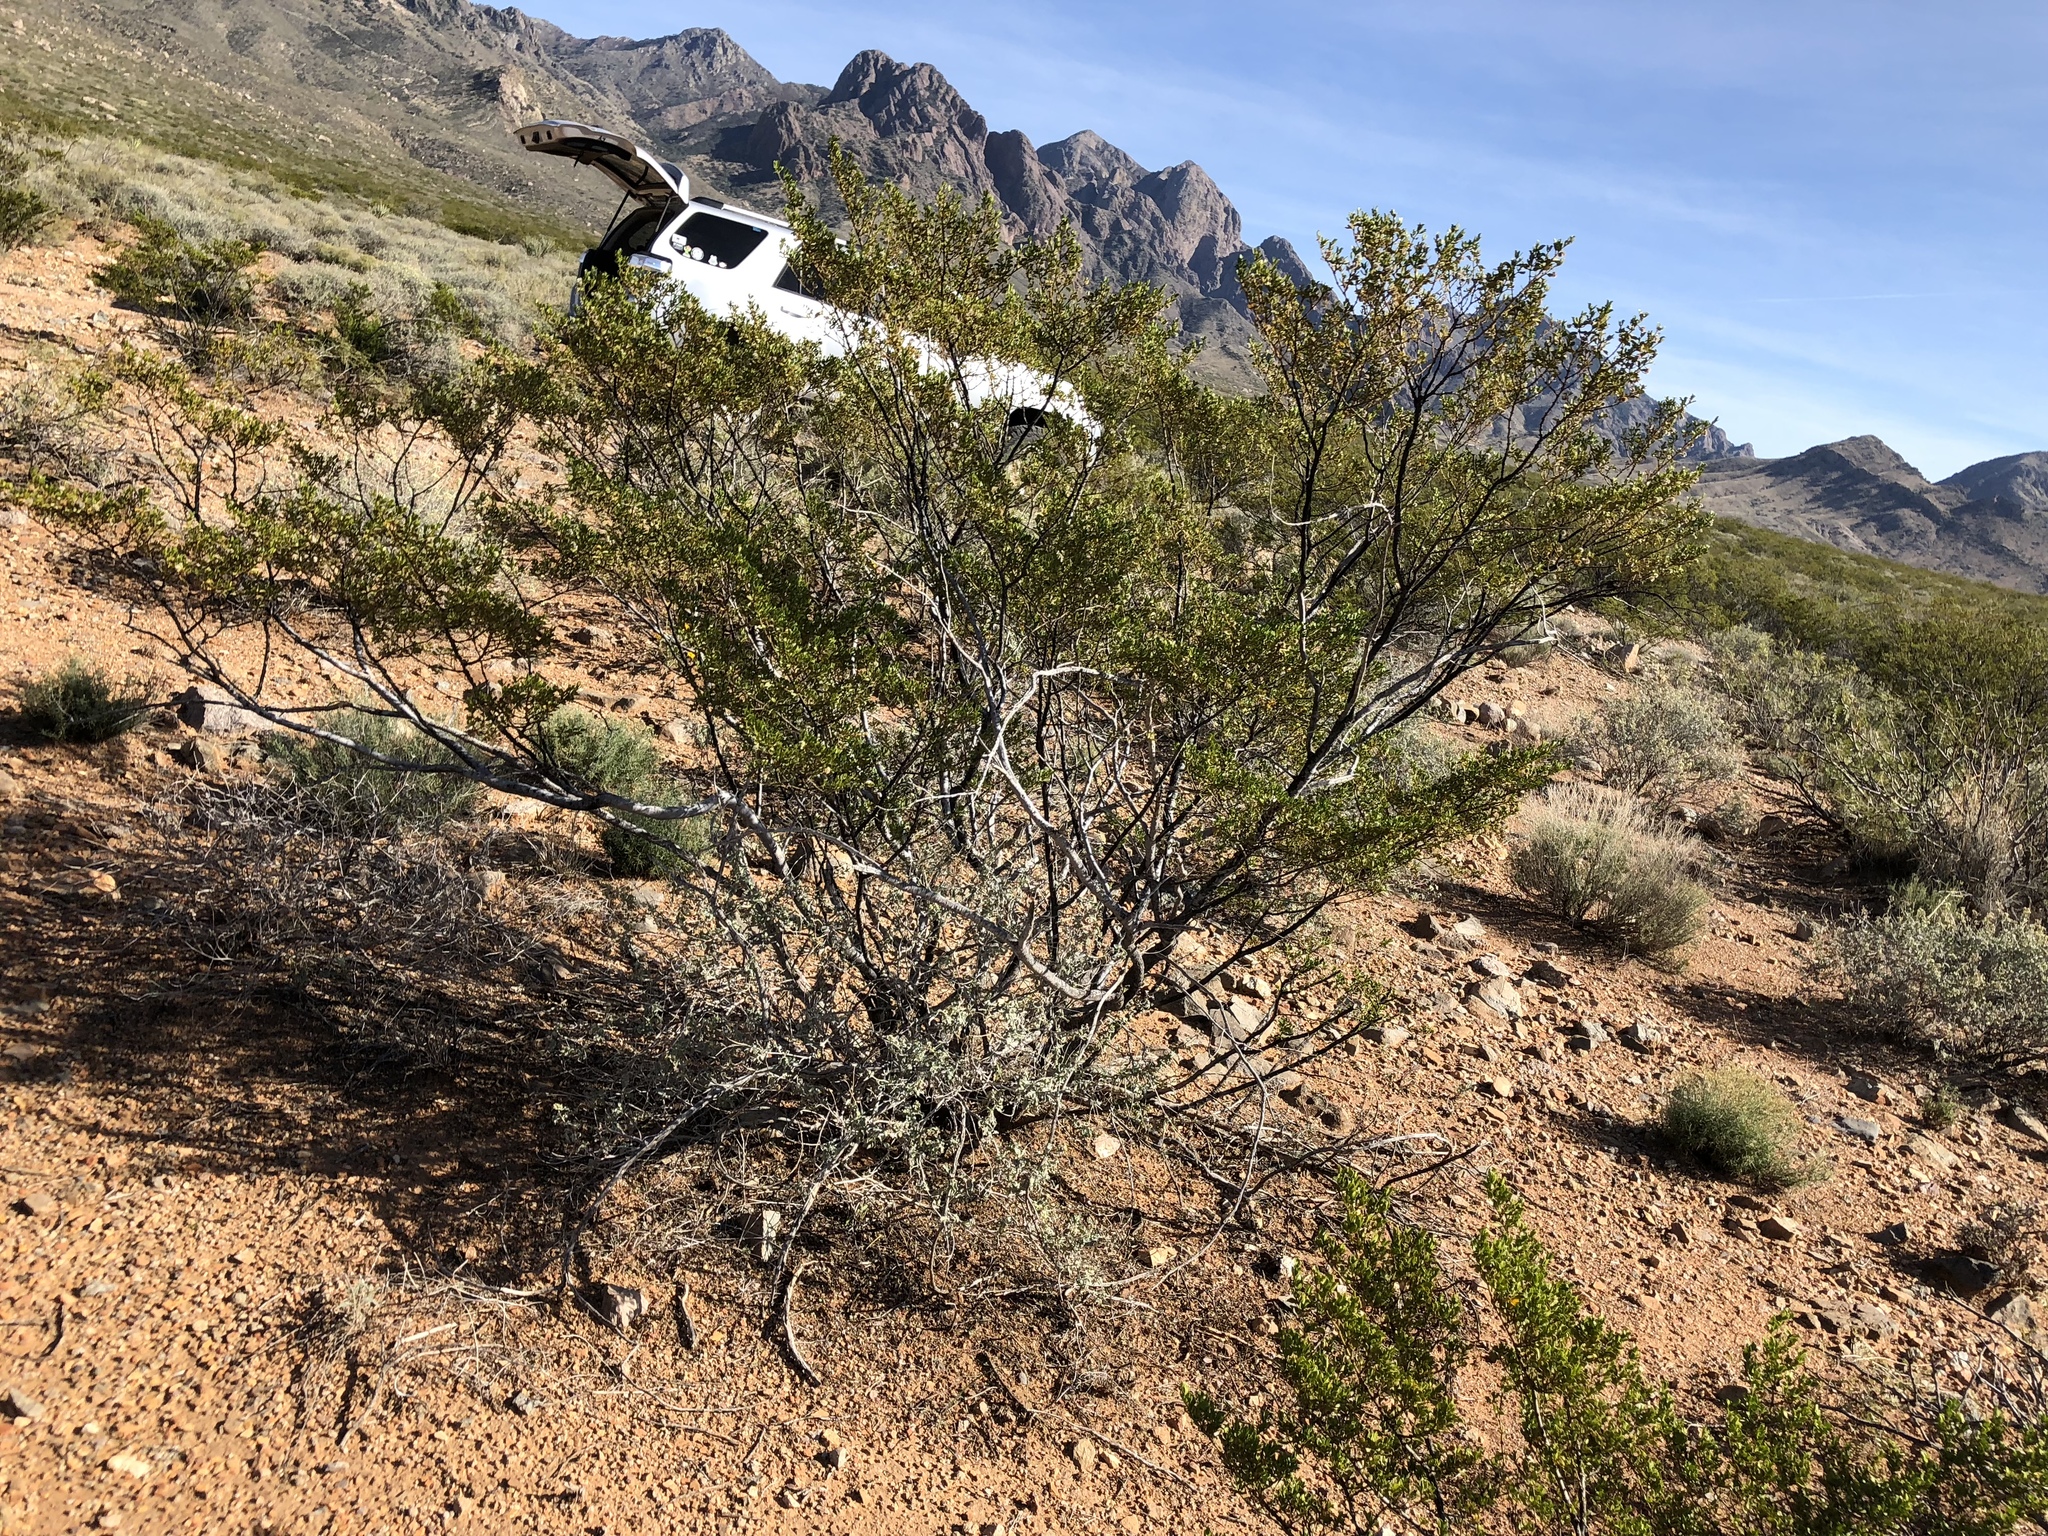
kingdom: Plantae
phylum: Tracheophyta
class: Magnoliopsida
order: Zygophyllales
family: Zygophyllaceae
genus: Larrea
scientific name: Larrea tridentata
